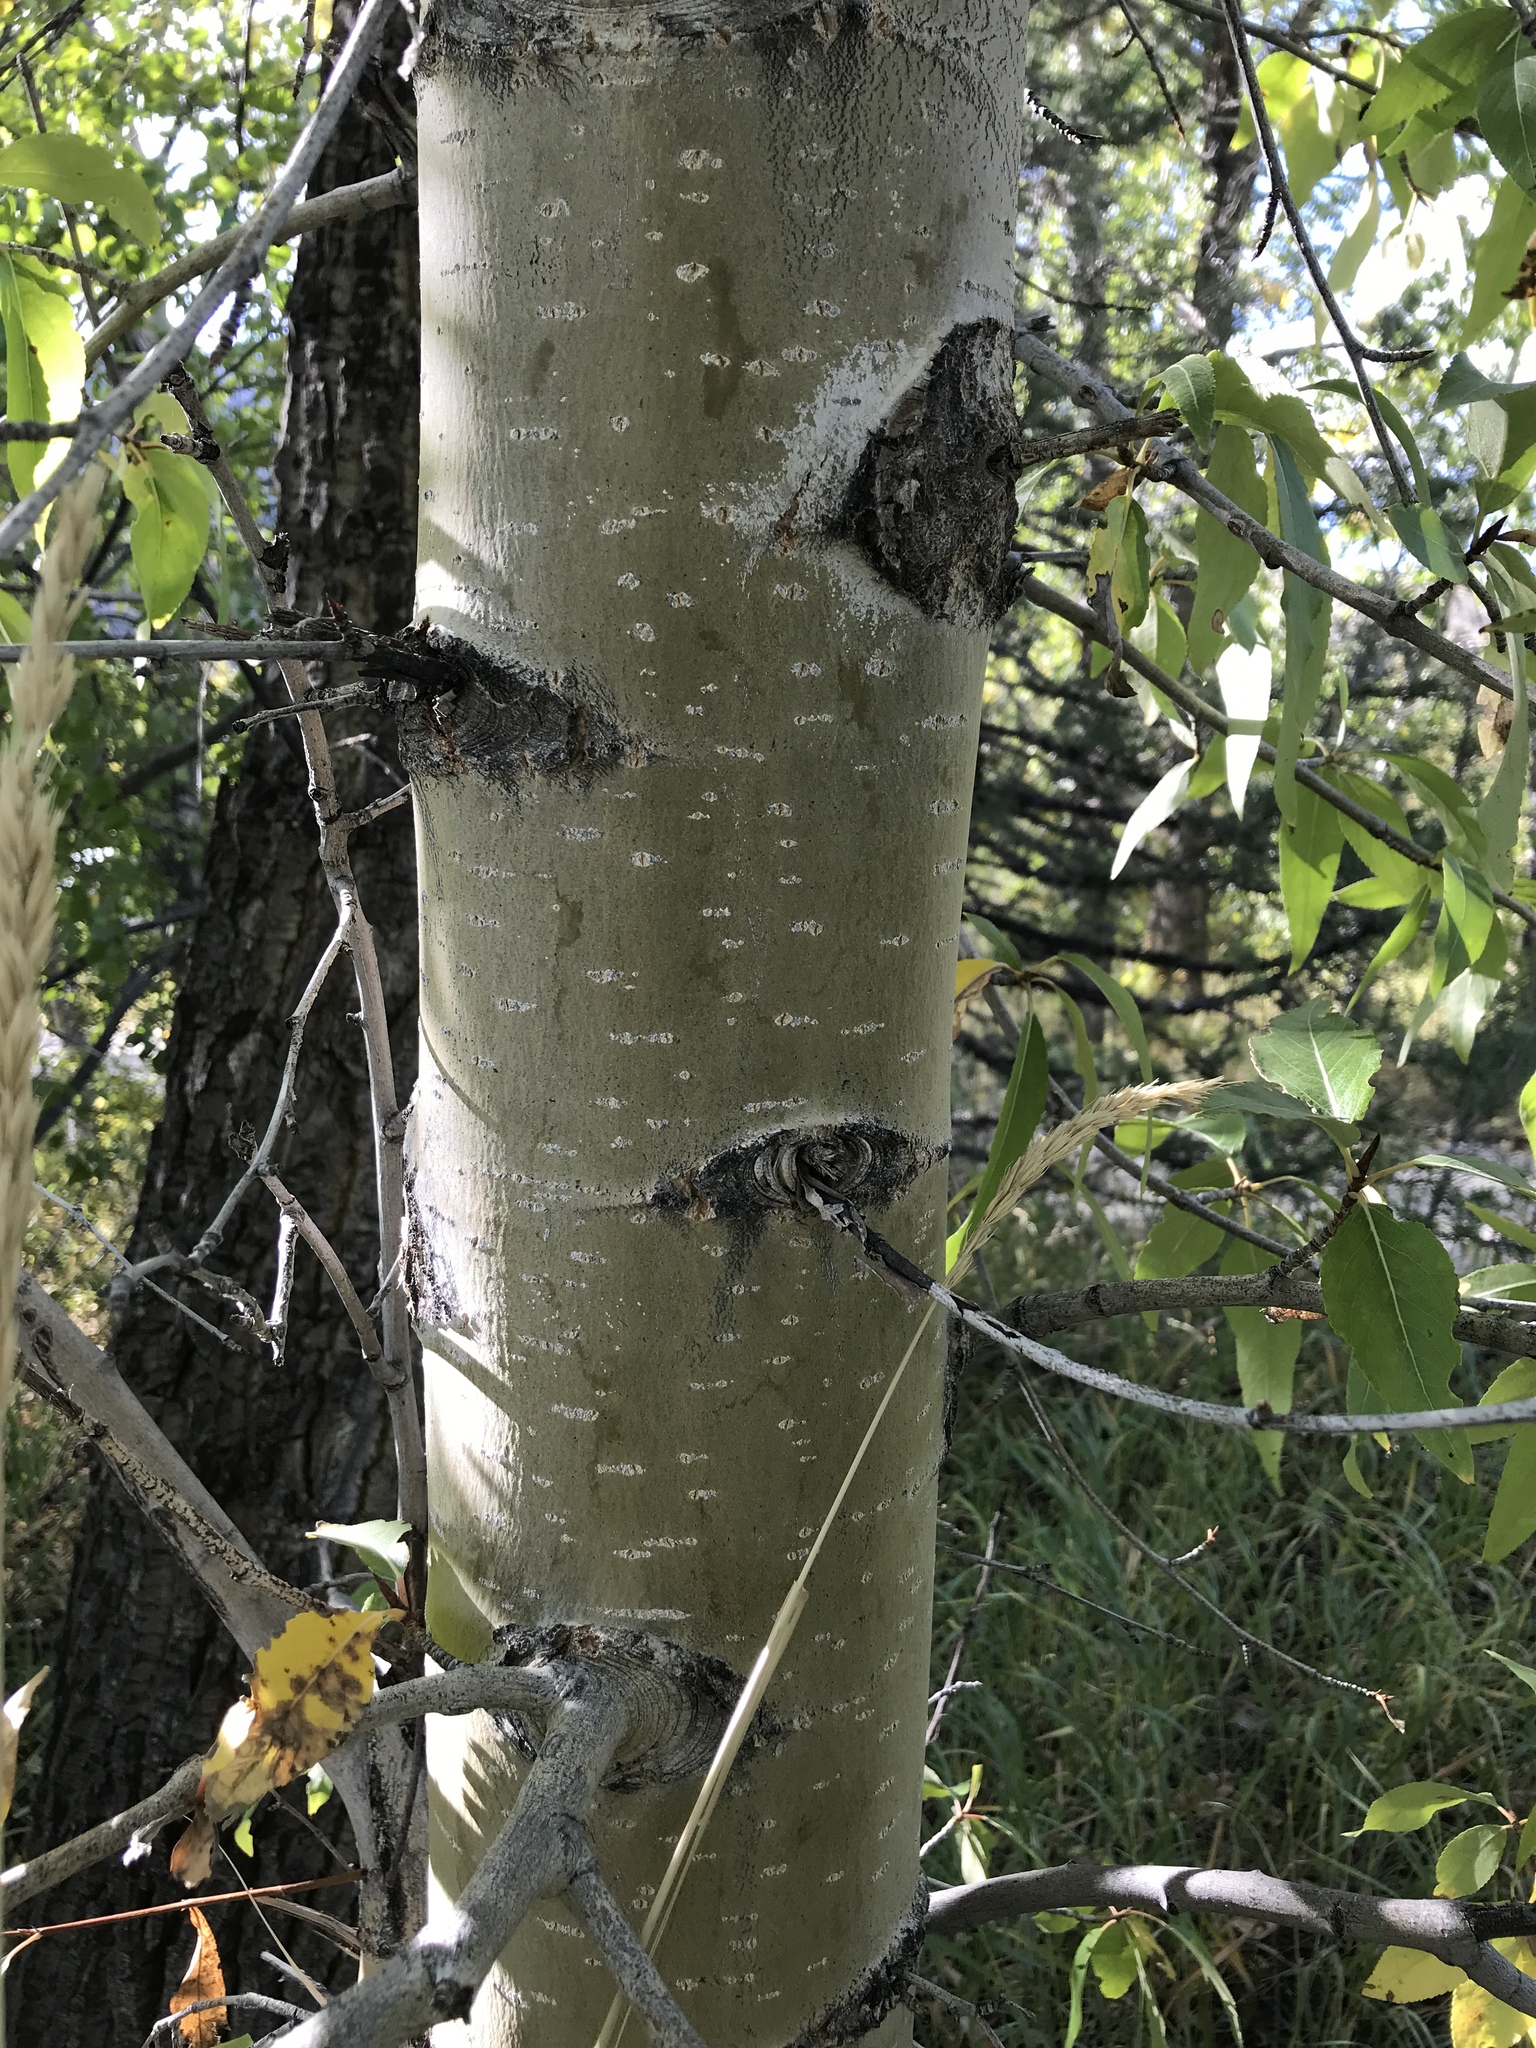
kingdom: Plantae
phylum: Tracheophyta
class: Magnoliopsida
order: Malpighiales
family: Salicaceae
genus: Populus
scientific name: Populus balsamifera
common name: Balsam poplar
